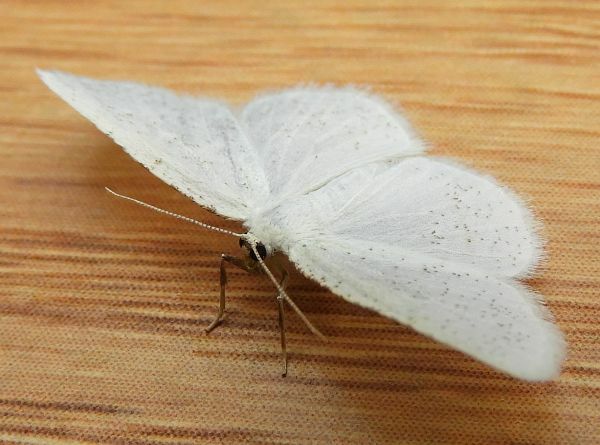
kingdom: Animalia
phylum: Arthropoda
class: Insecta
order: Lepidoptera
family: Geometridae
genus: Protitame
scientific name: Protitame virginalis
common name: Virgin moth
